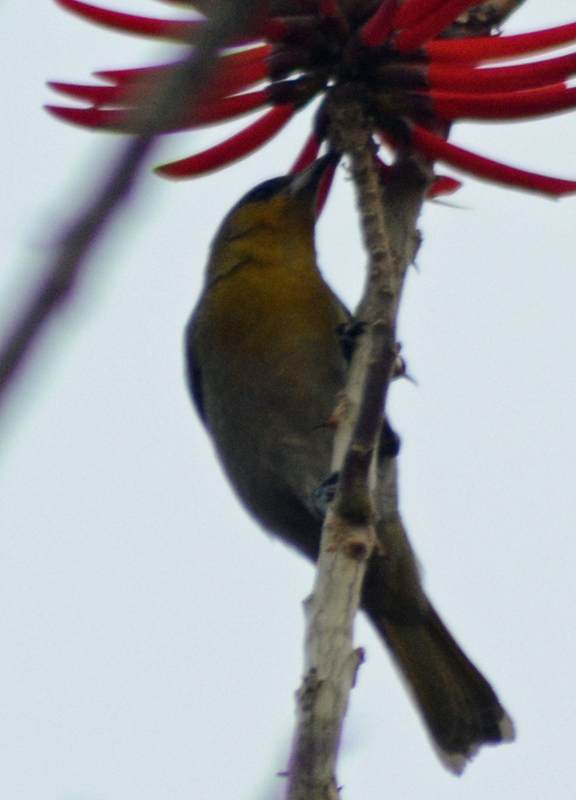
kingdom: Animalia
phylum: Chordata
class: Aves
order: Passeriformes
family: Icteridae
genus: Icterus
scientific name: Icterus abeillei
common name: Black-backed oriole
